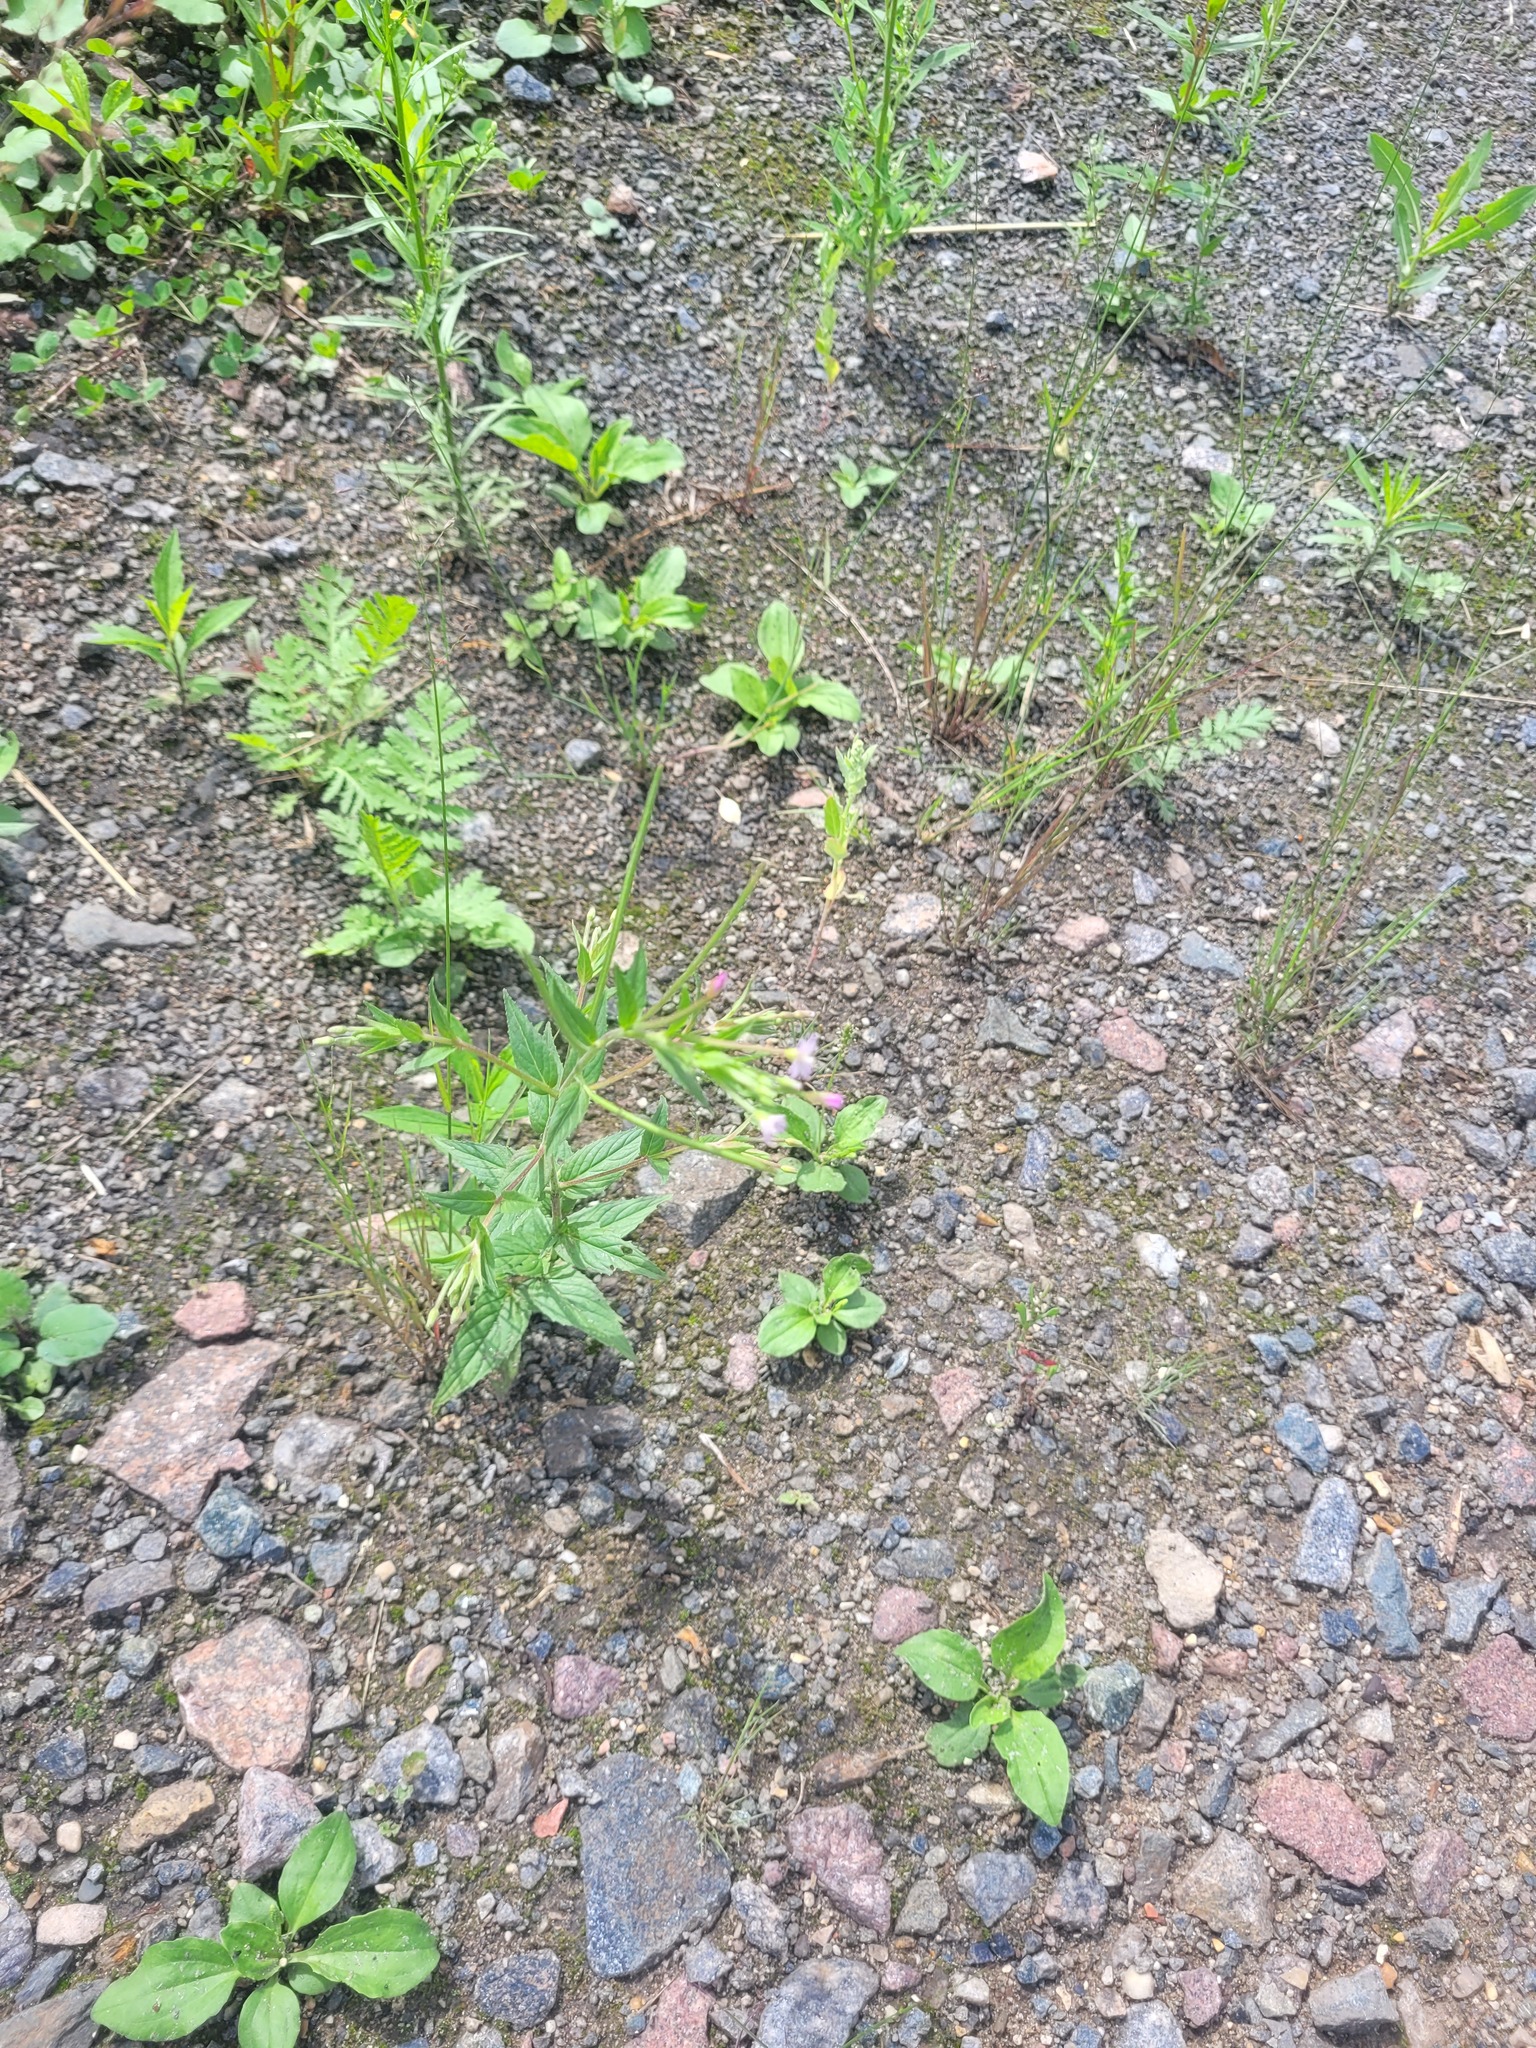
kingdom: Plantae
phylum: Tracheophyta
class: Magnoliopsida
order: Myrtales
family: Onagraceae
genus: Epilobium
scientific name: Epilobium ciliatum
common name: American willowherb
